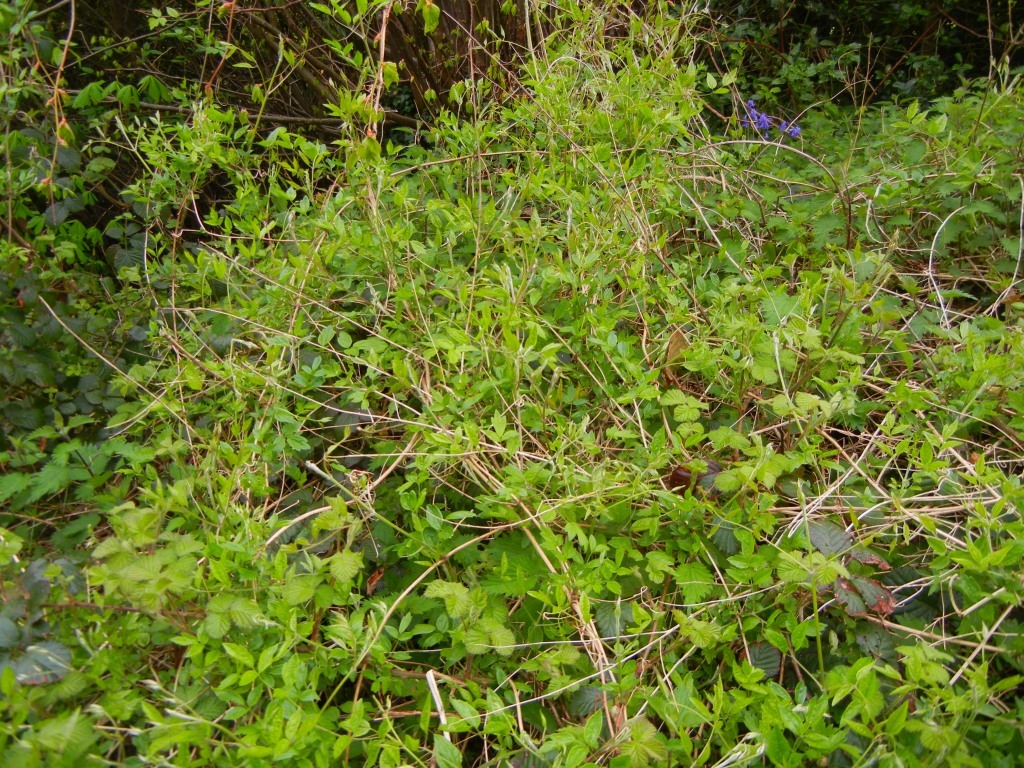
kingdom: Plantae
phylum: Tracheophyta
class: Magnoliopsida
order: Ranunculales
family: Ranunculaceae
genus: Clematis
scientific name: Clematis vitalba
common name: Evergreen clematis
